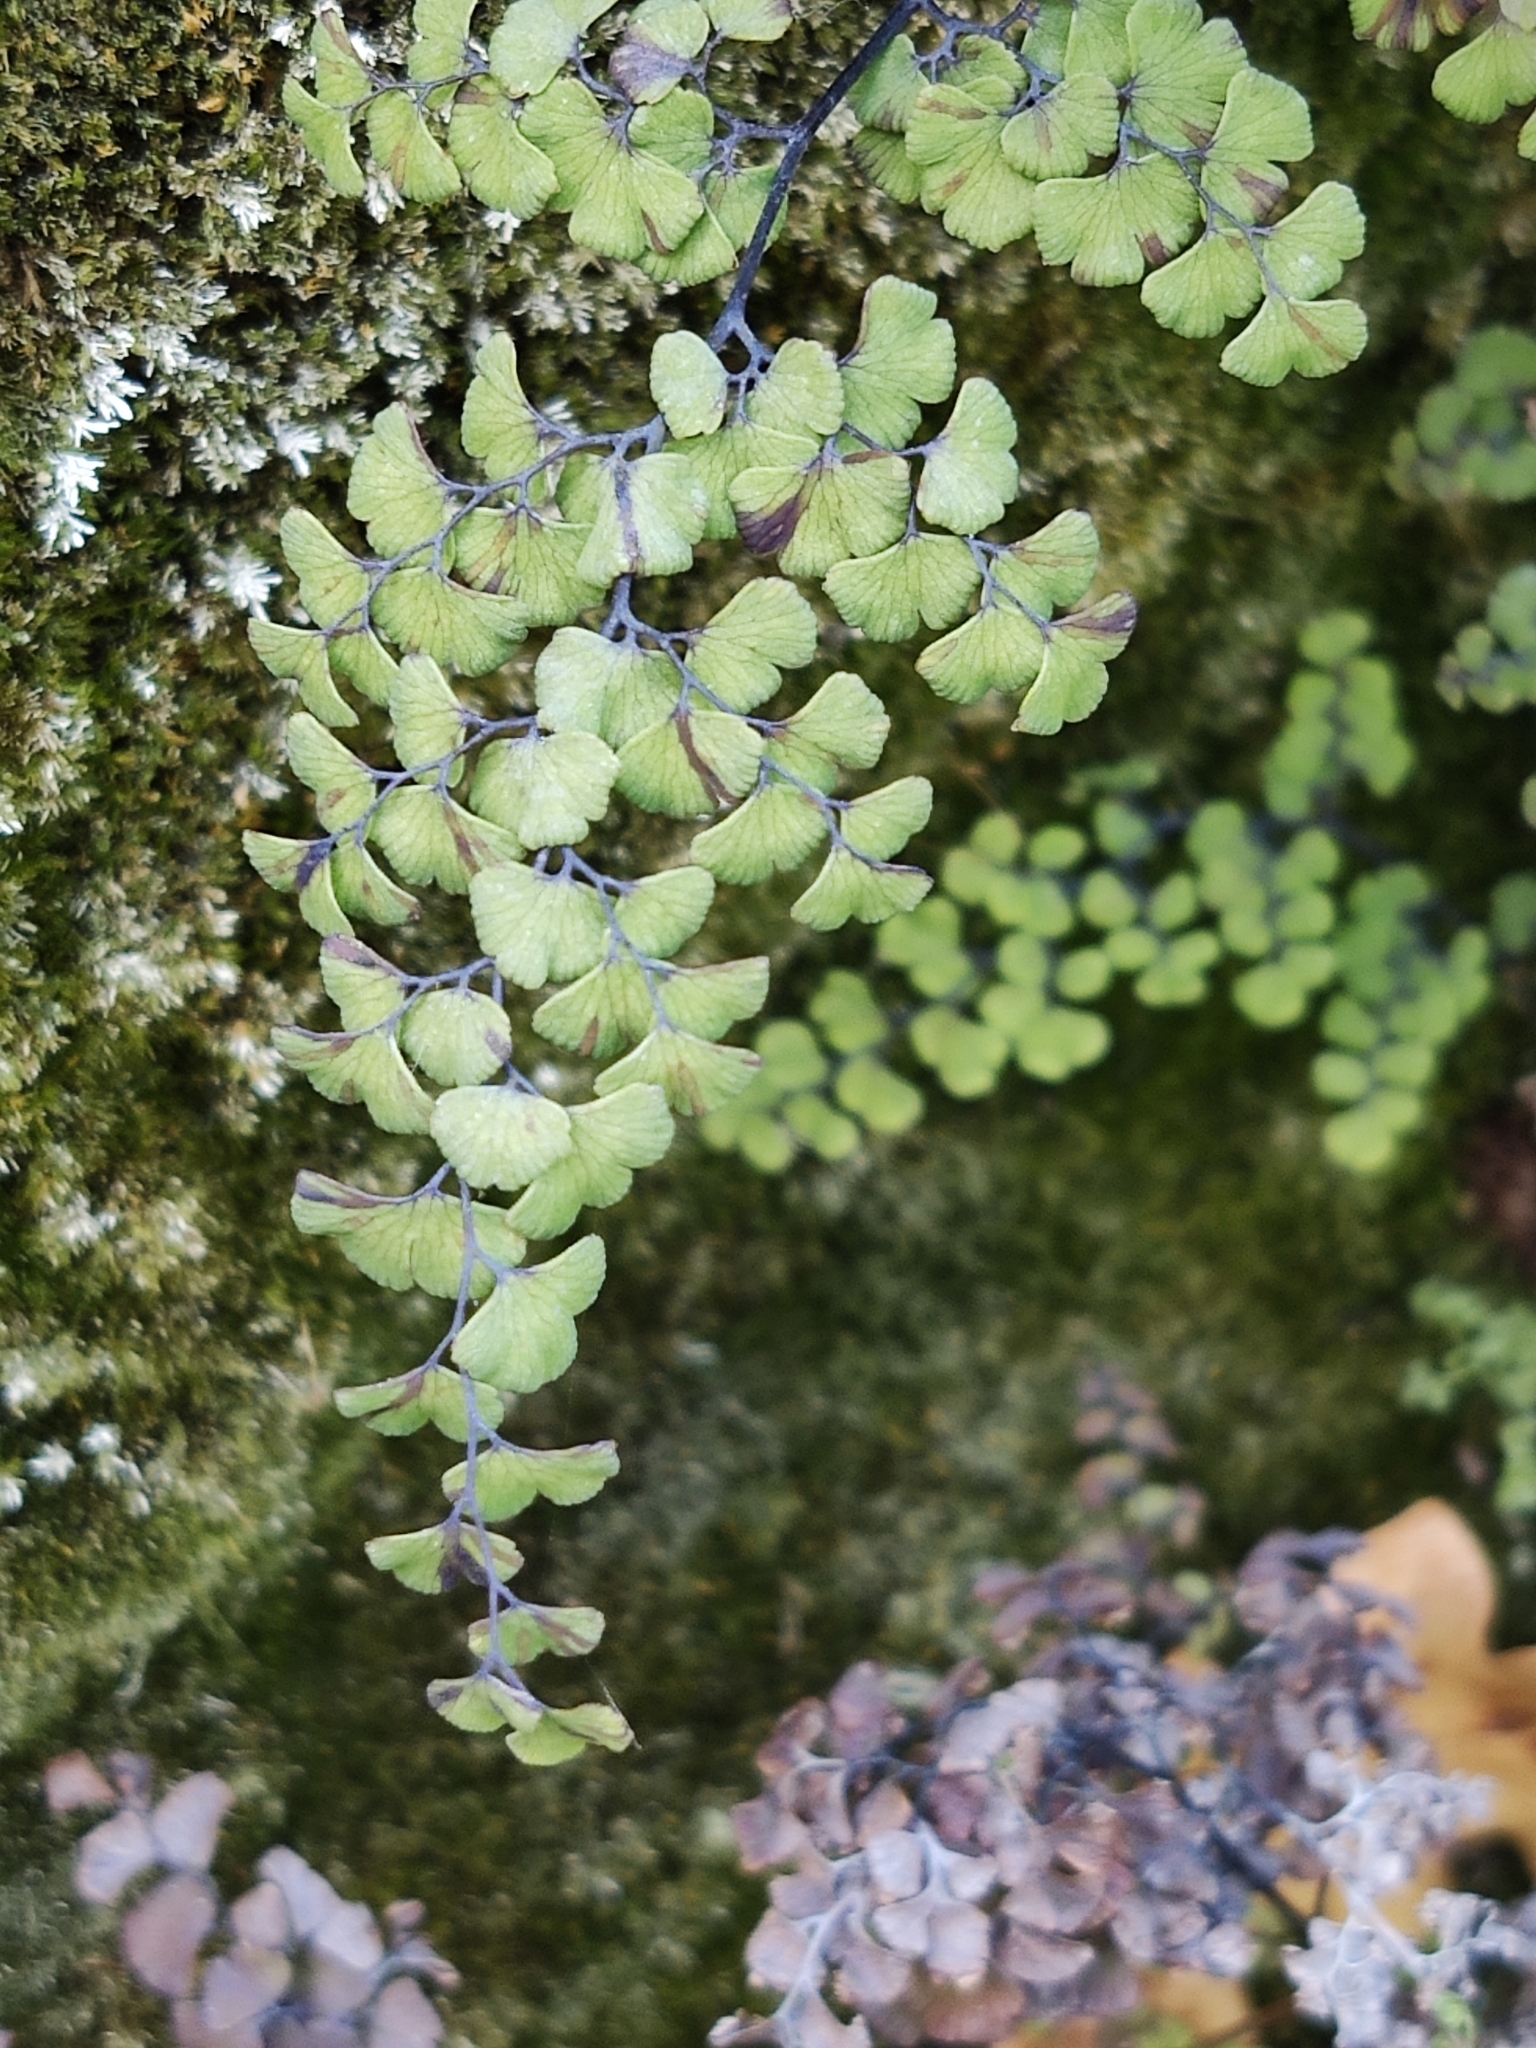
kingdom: Plantae
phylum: Tracheophyta
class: Polypodiopsida
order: Polypodiales
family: Pteridaceae
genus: Adiantum
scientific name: Adiantum capillus-veneris
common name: Maidenhair fern
